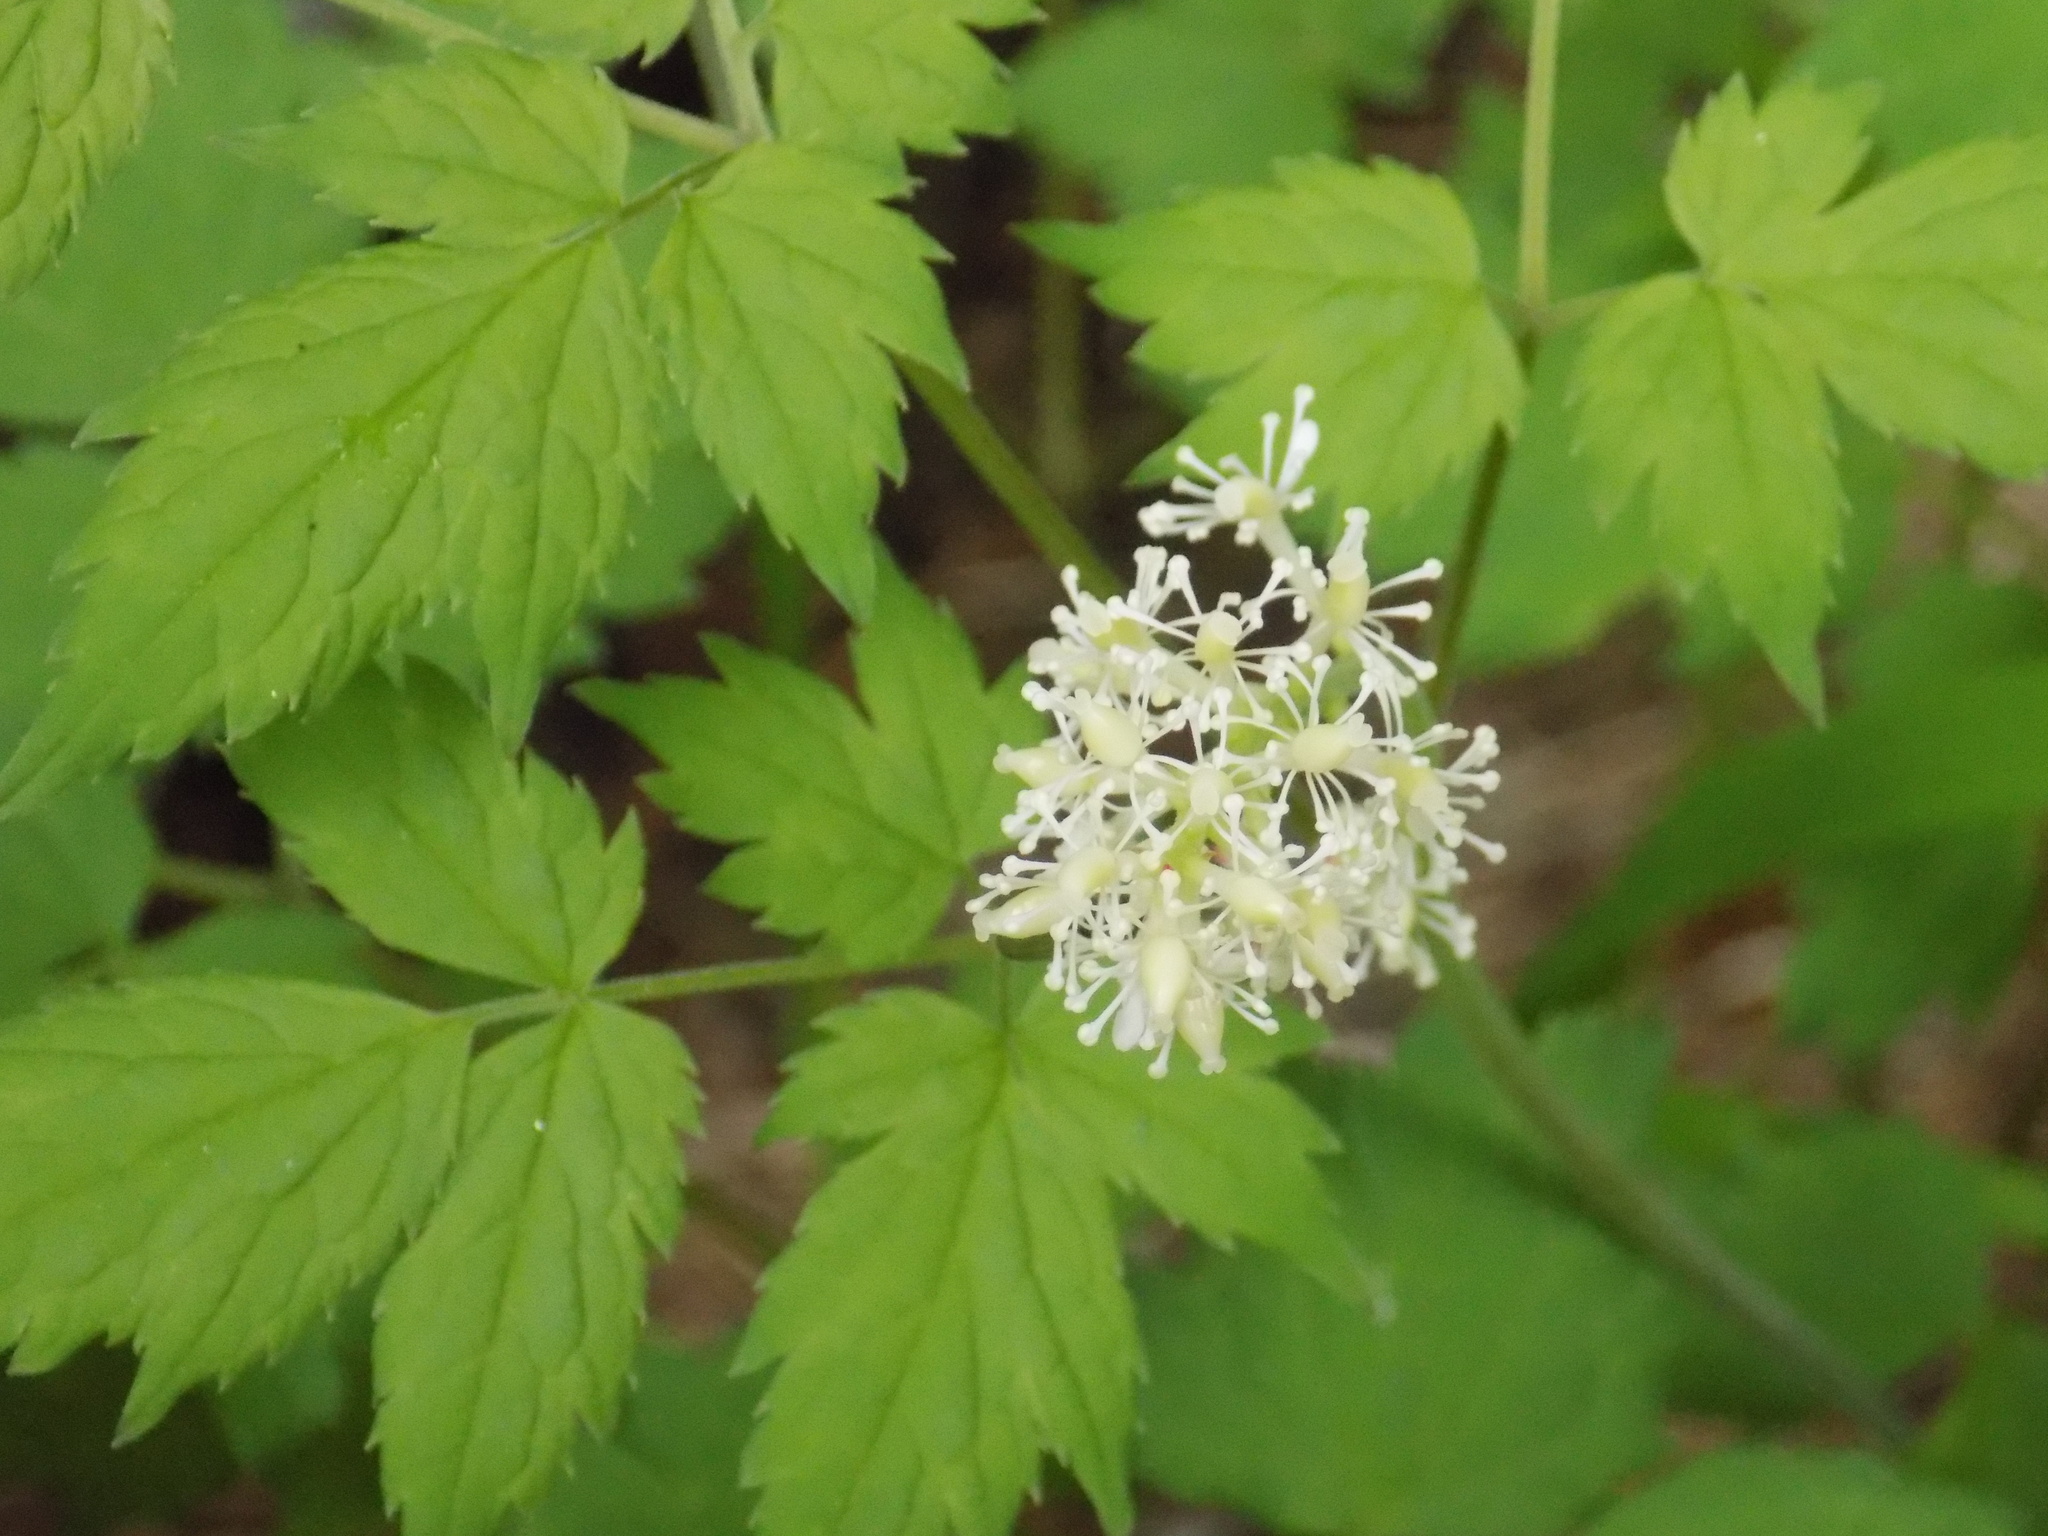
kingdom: Plantae
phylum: Tracheophyta
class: Magnoliopsida
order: Ranunculales
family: Ranunculaceae
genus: Actaea
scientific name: Actaea erythrocarpa
